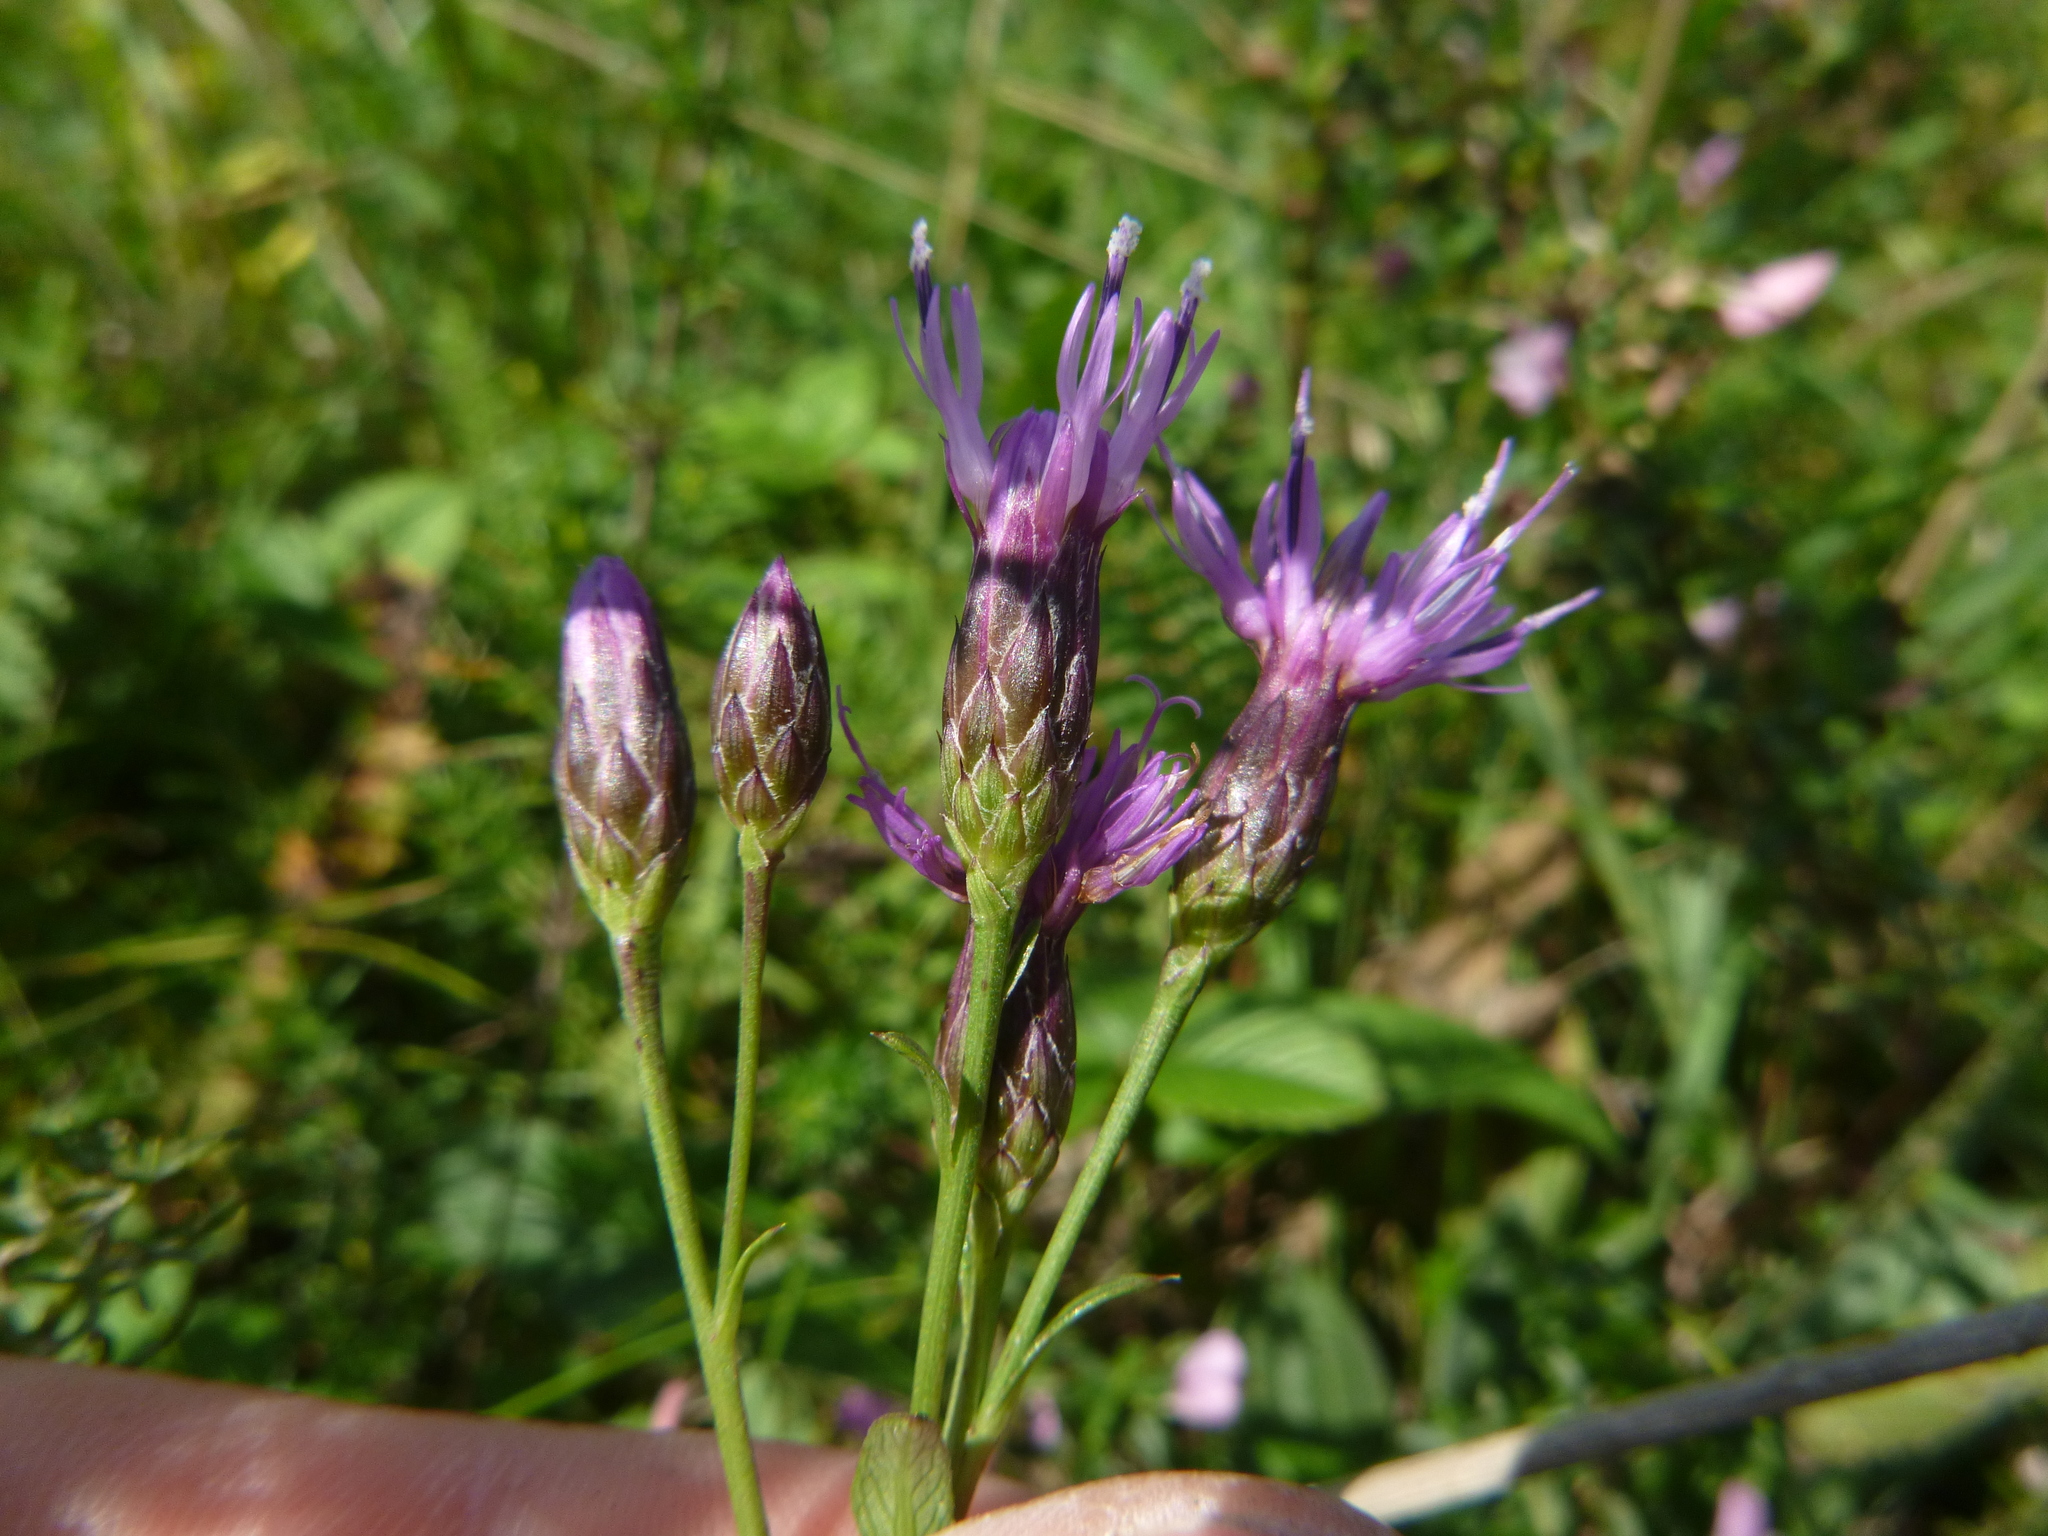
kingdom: Plantae
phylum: Tracheophyta
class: Magnoliopsida
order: Asterales
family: Asteraceae
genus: Serratula
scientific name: Serratula tinctoria
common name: Saw-wort
